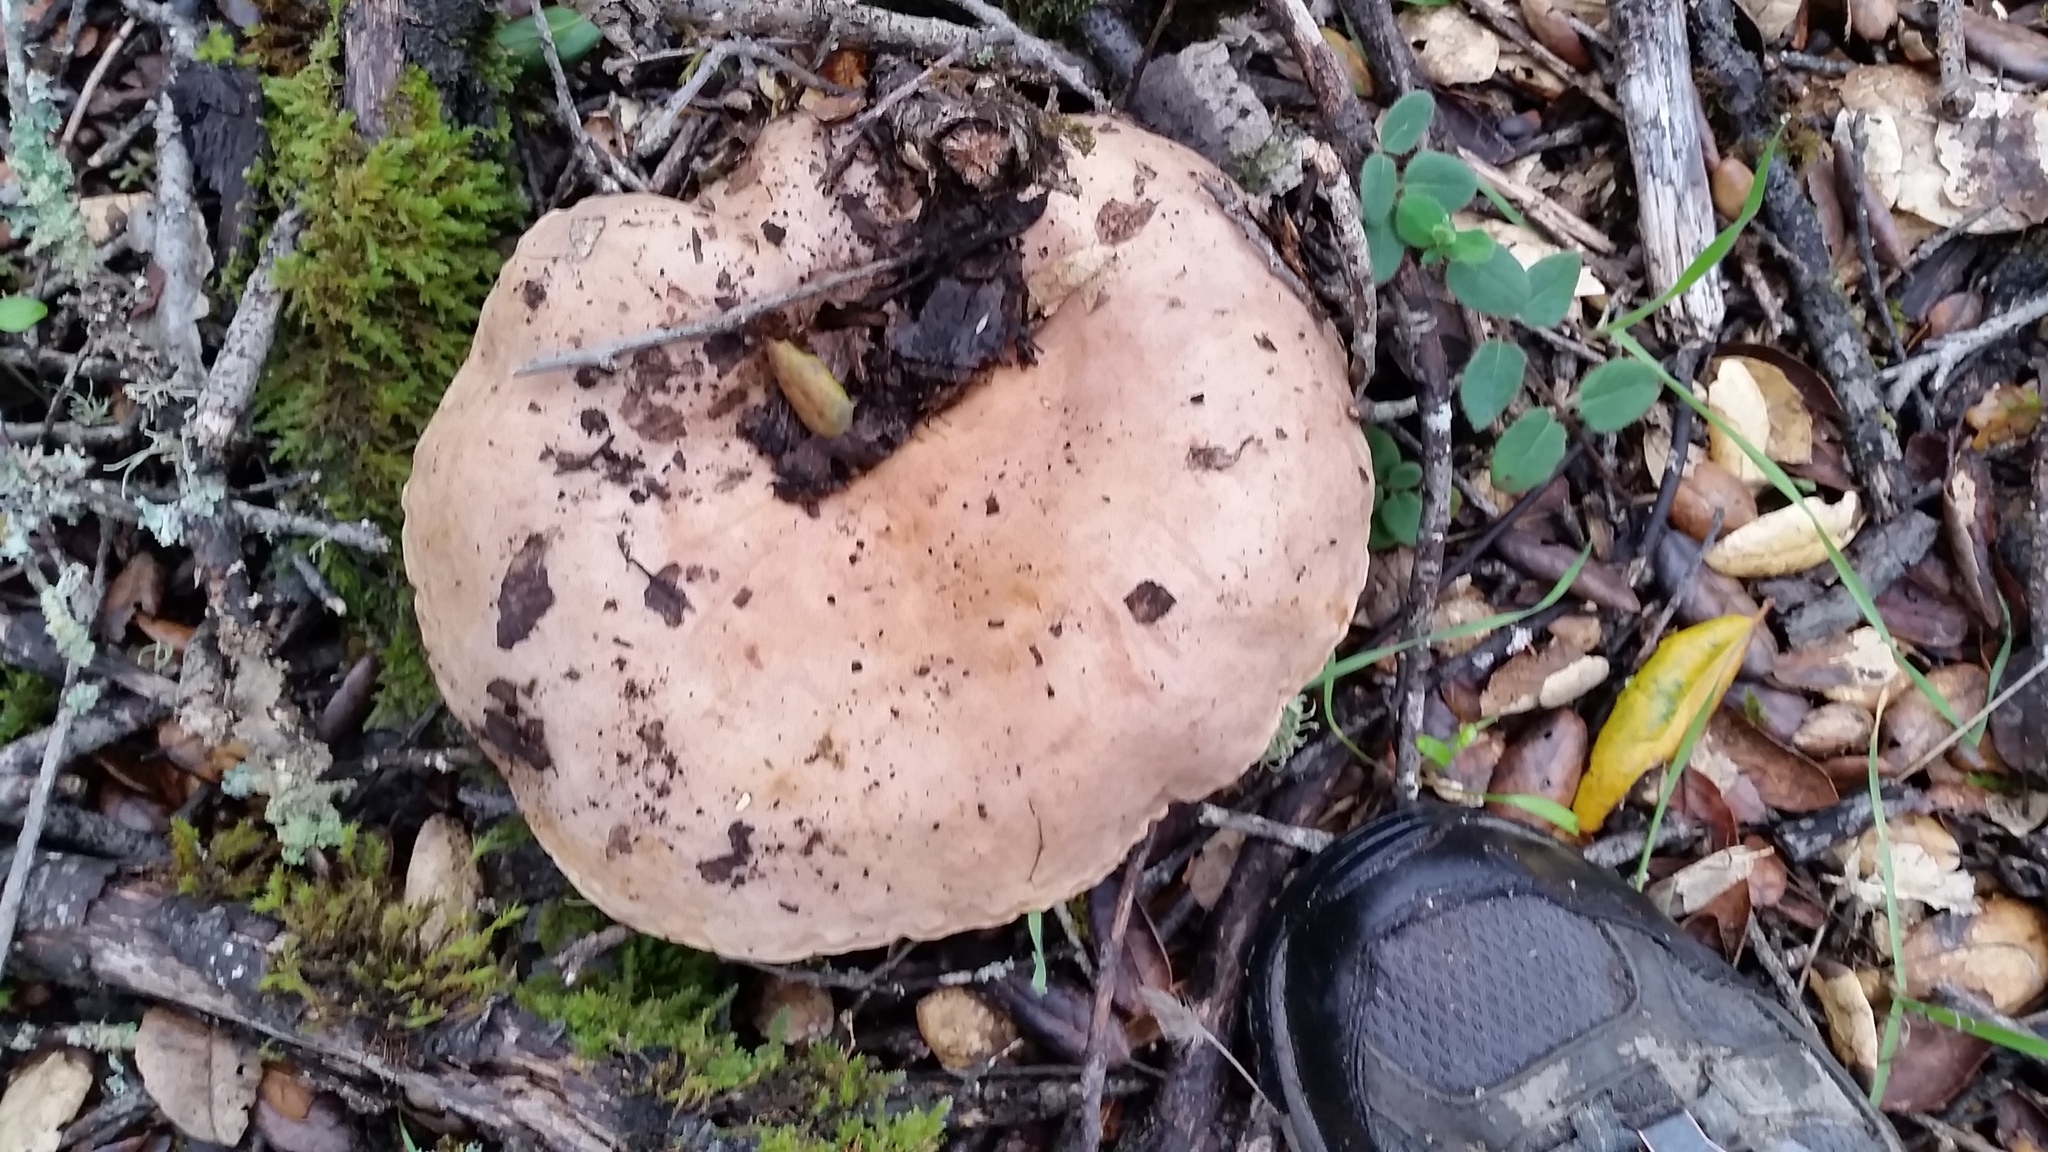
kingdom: Fungi
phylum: Basidiomycota
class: Agaricomycetes
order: Russulales
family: Russulaceae
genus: Lactarius
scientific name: Lactarius argillaceifolius
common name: Clay-gilled milkcap
